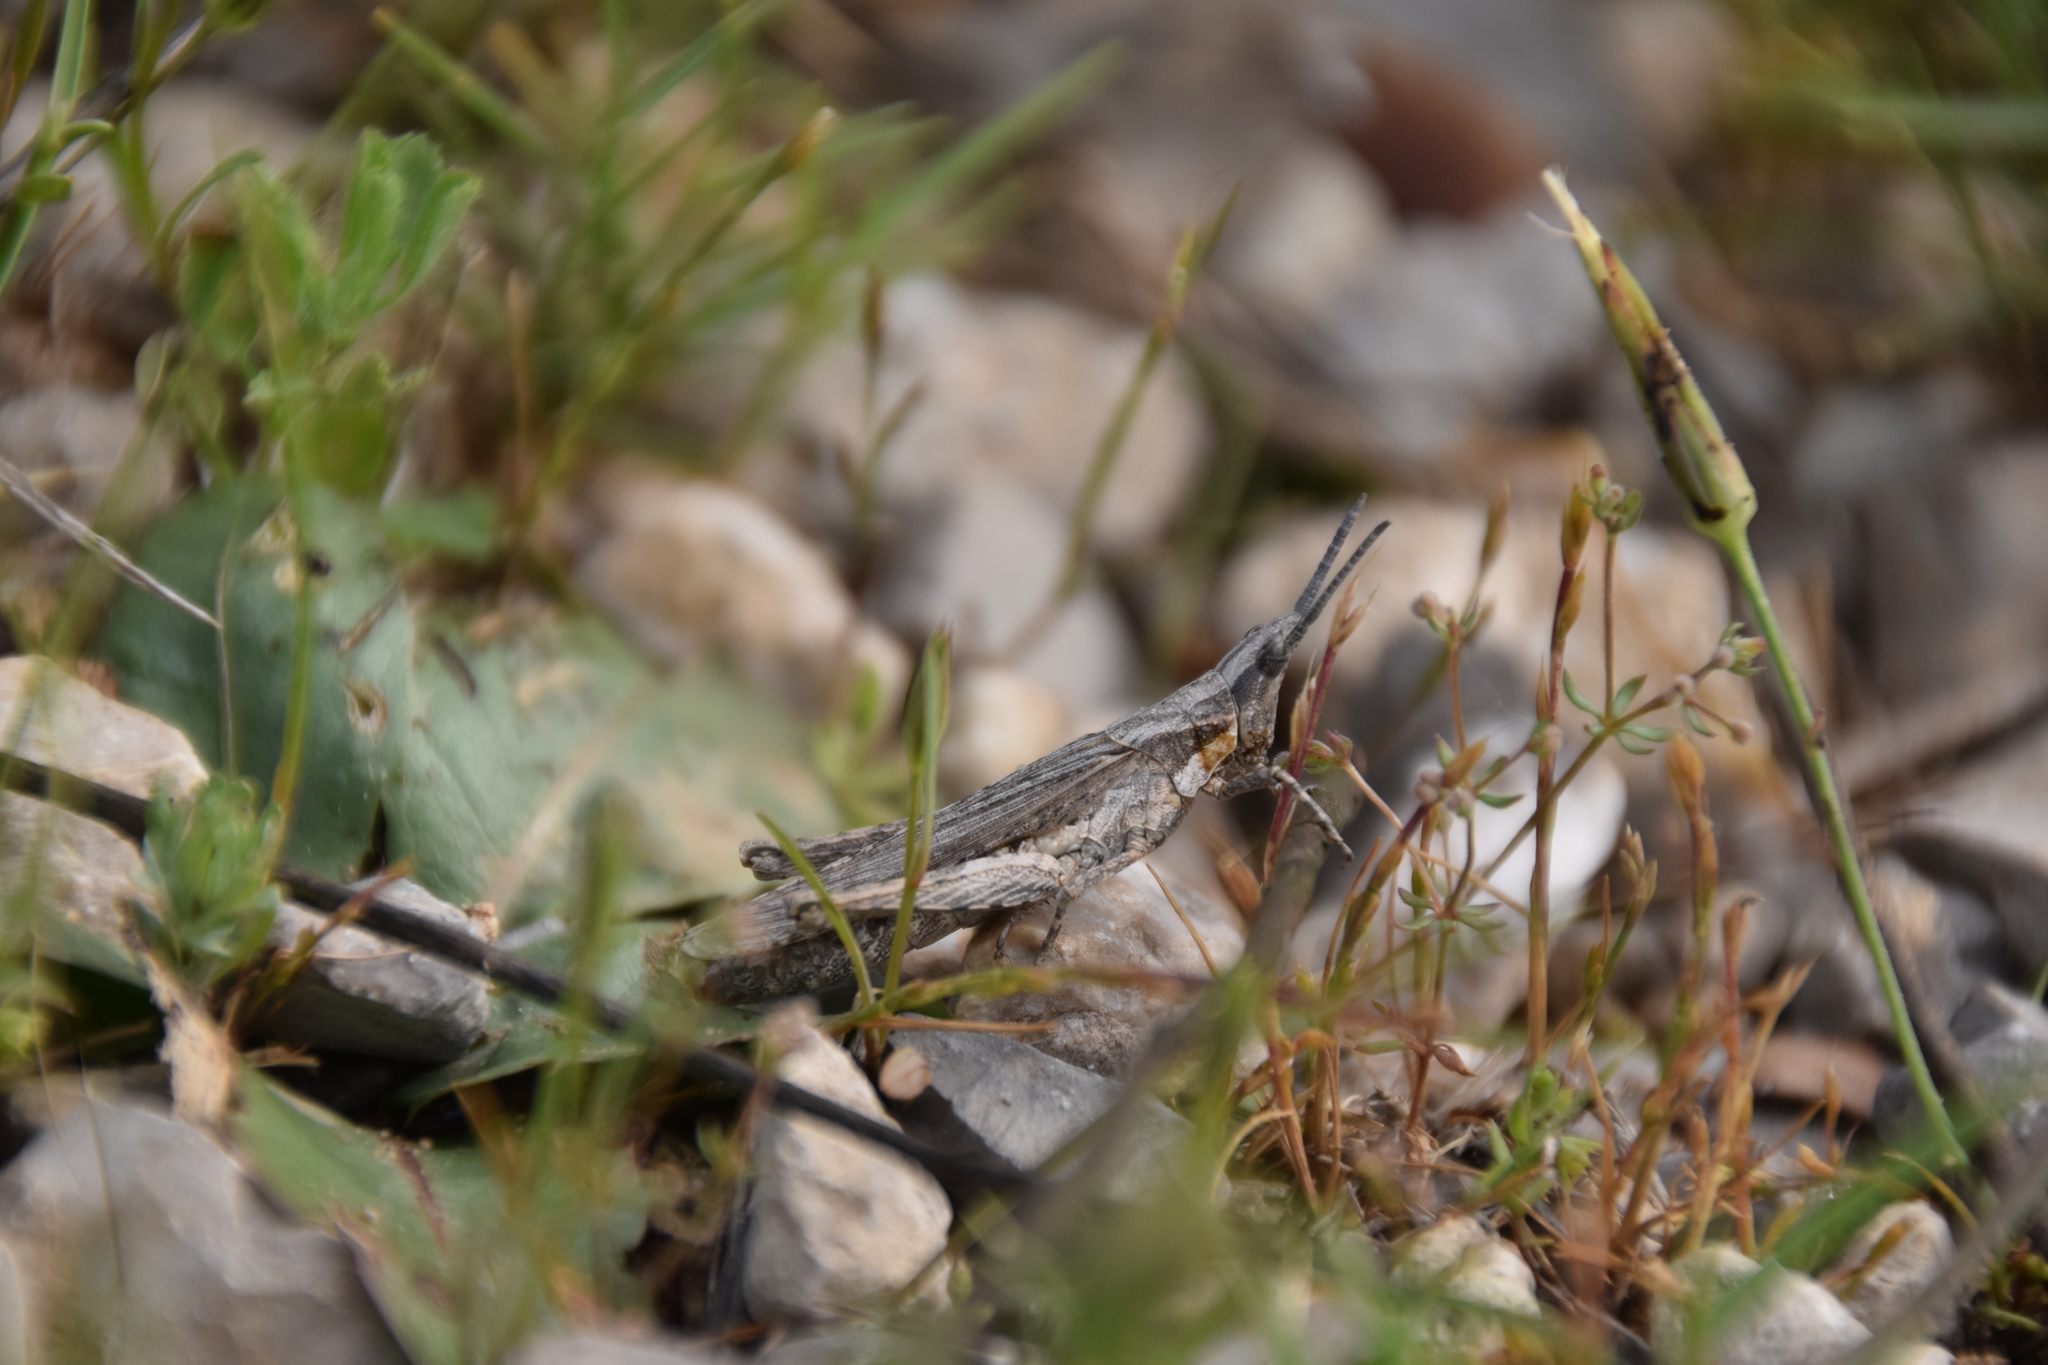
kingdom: Animalia
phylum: Arthropoda
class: Insecta
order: Orthoptera
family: Pyrgomorphidae
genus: Pyrgomorpha
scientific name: Pyrgomorpha conica
